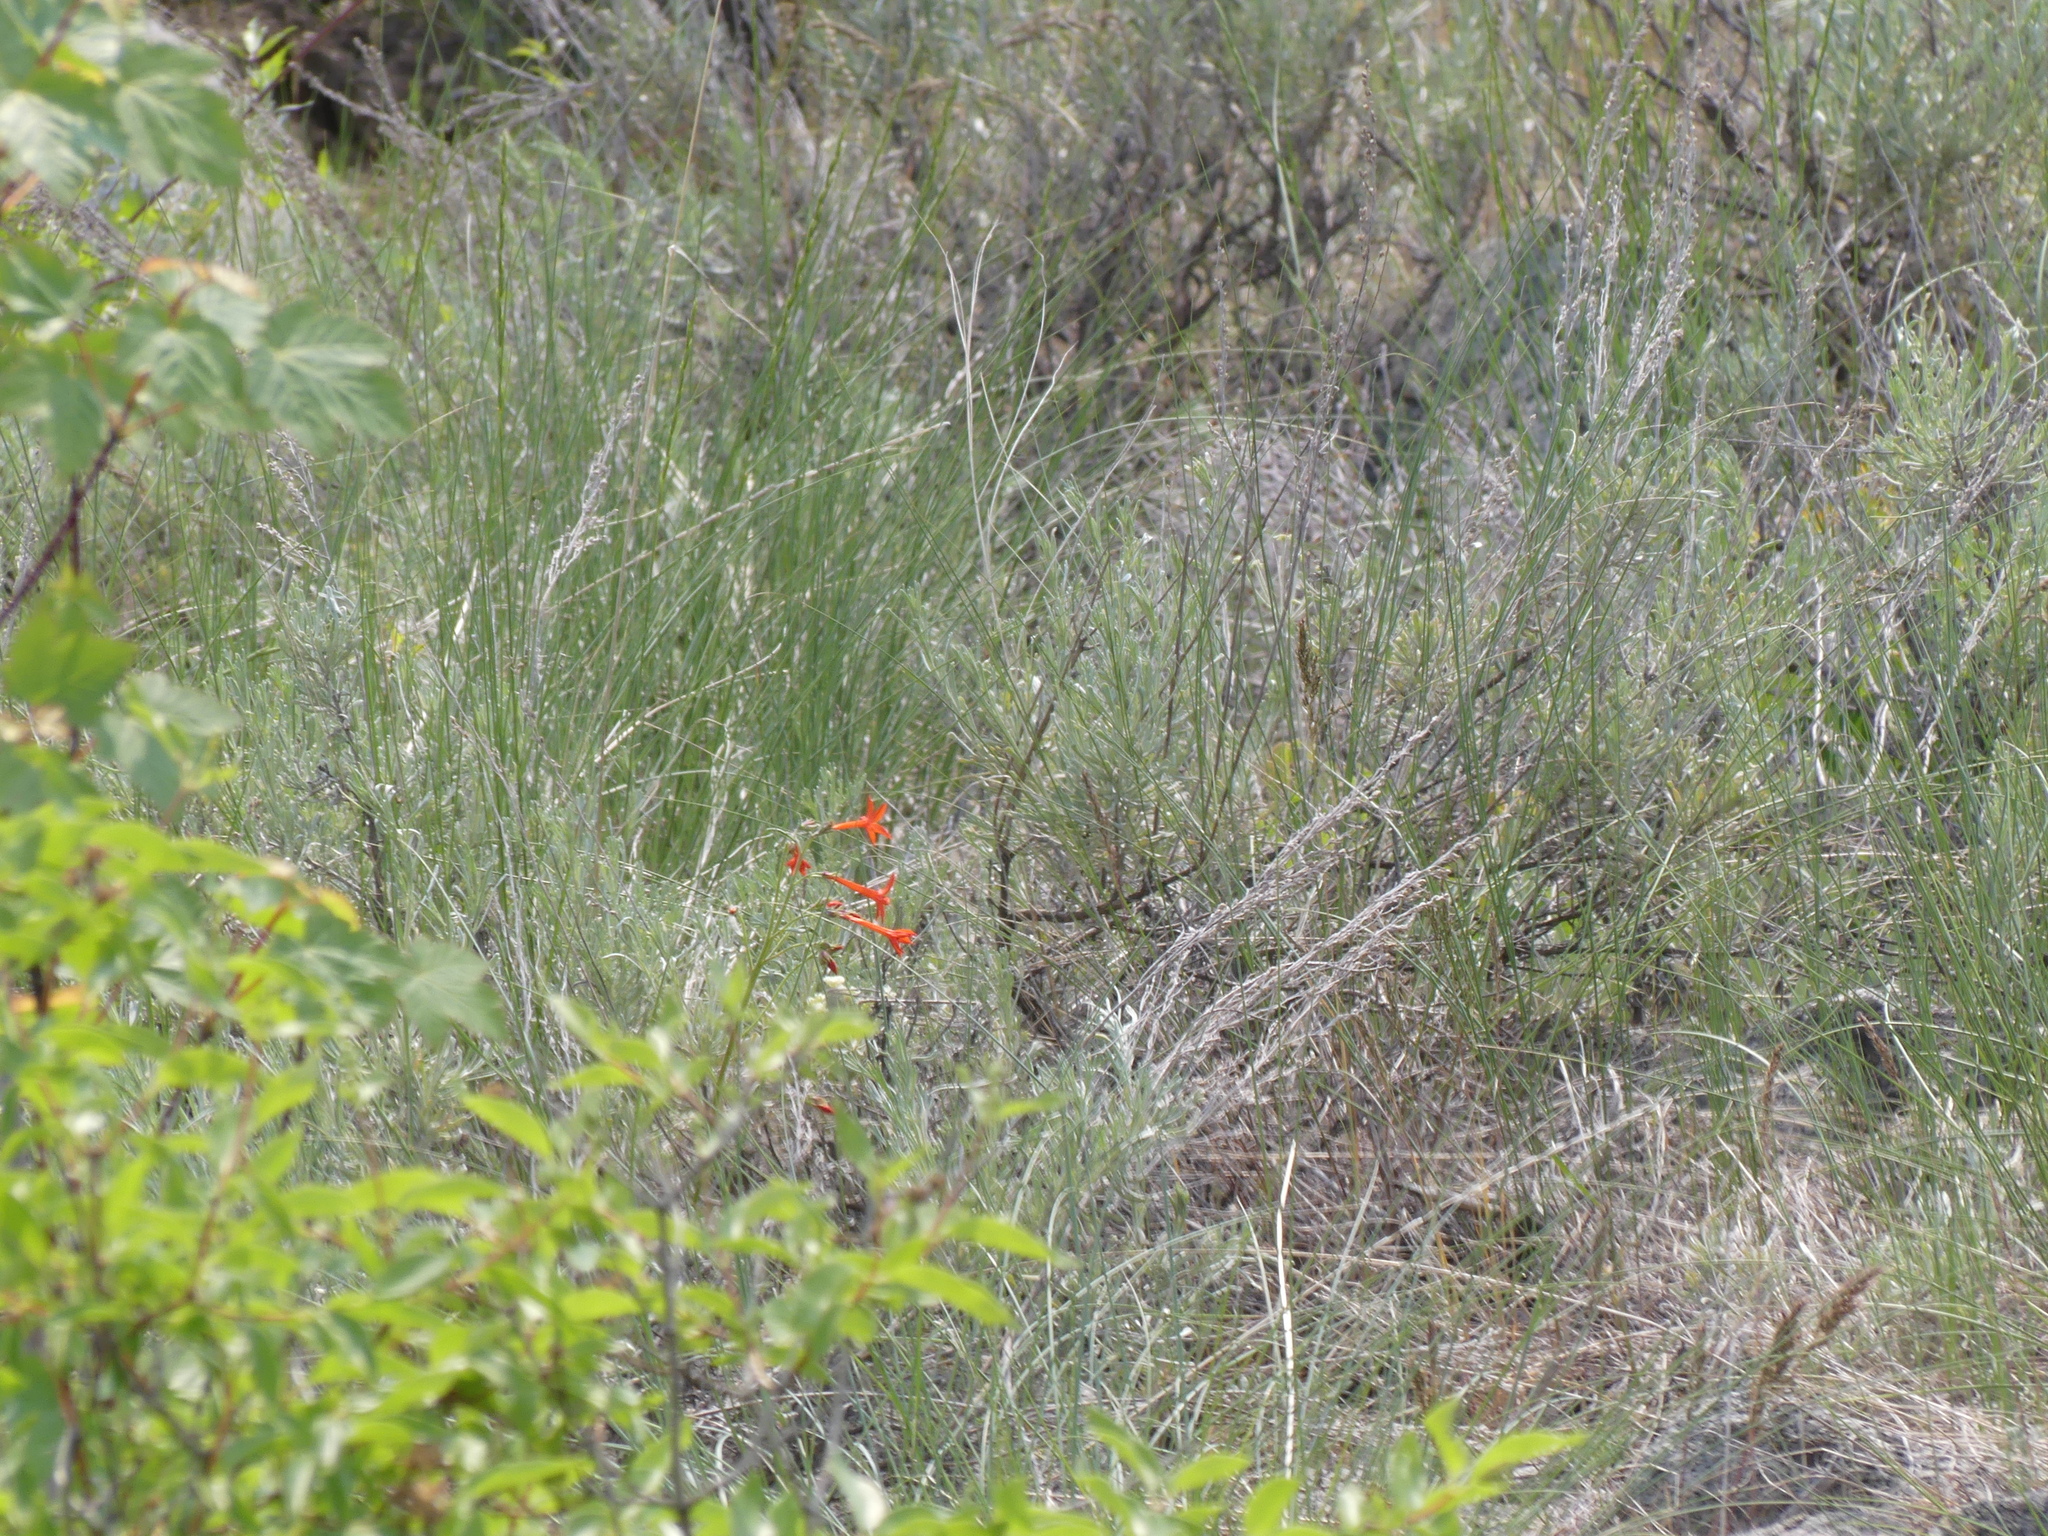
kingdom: Plantae
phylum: Tracheophyta
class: Magnoliopsida
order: Ericales
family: Polemoniaceae
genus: Ipomopsis
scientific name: Ipomopsis aggregata
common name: Scarlet gilia
